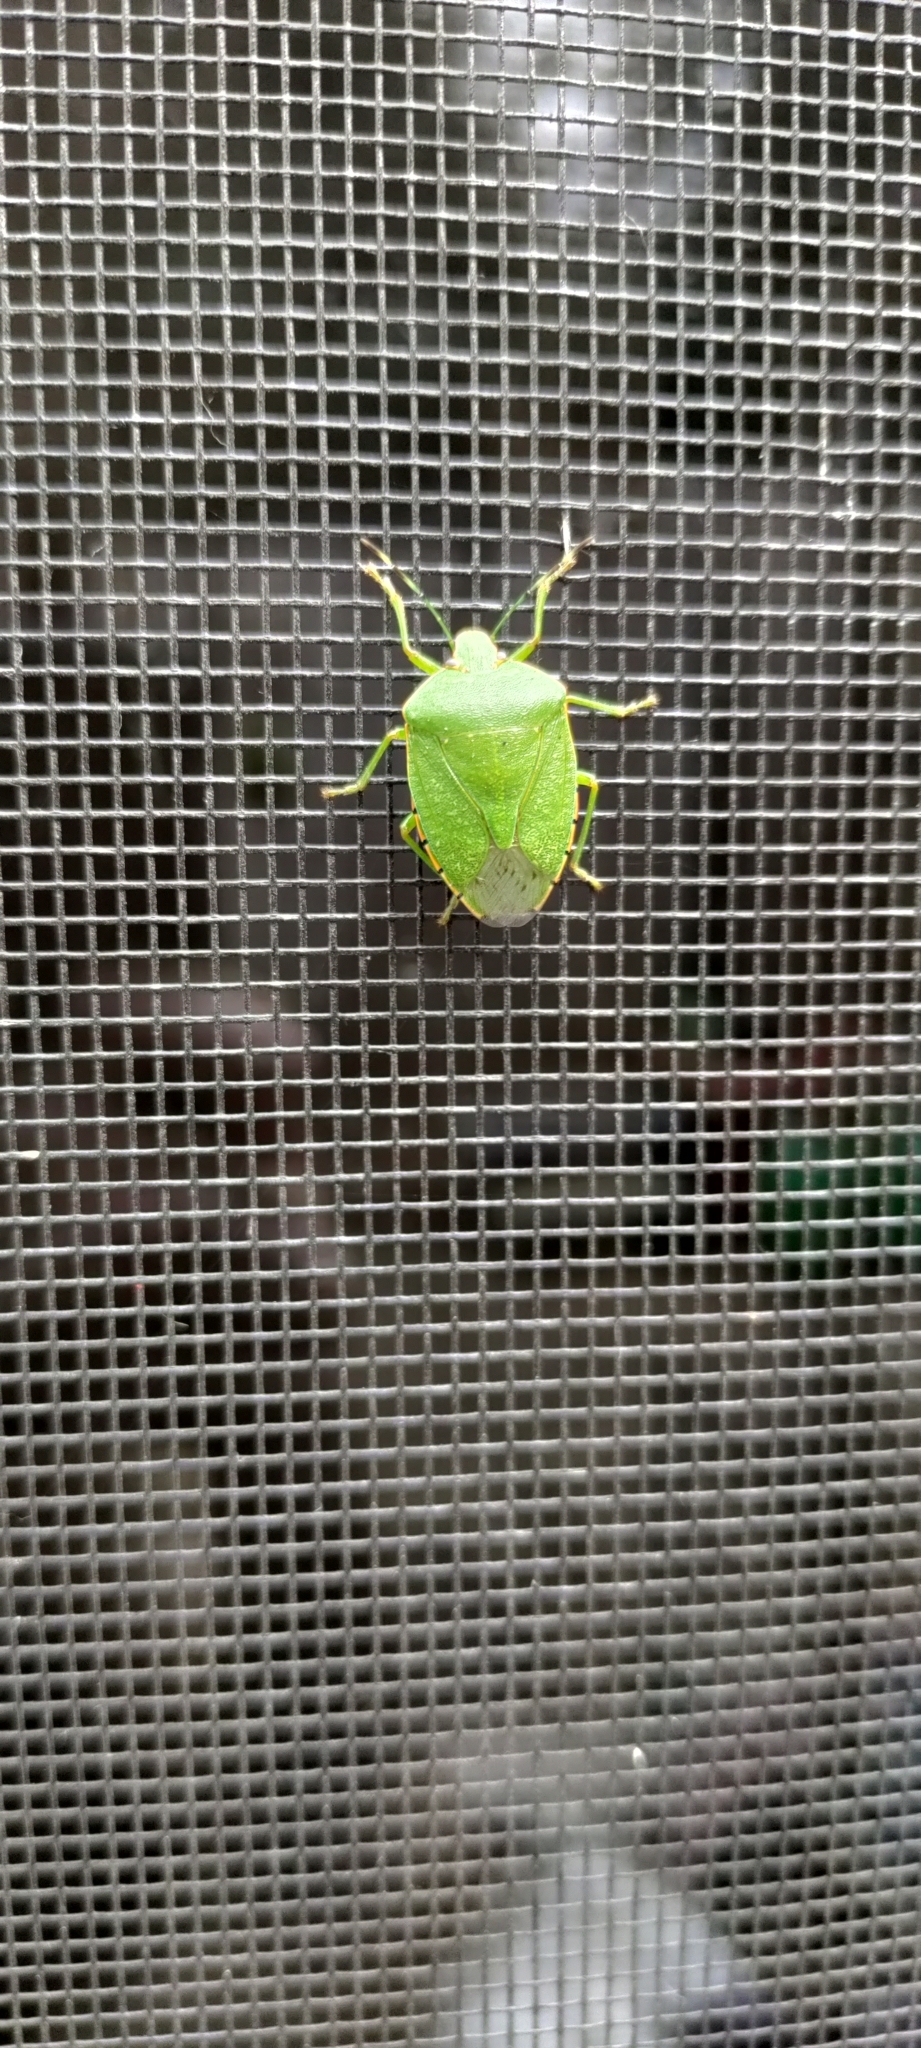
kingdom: Animalia
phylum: Arthropoda
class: Insecta
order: Hemiptera
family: Pentatomidae
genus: Chinavia
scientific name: Chinavia hilaris
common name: Green stink bug
